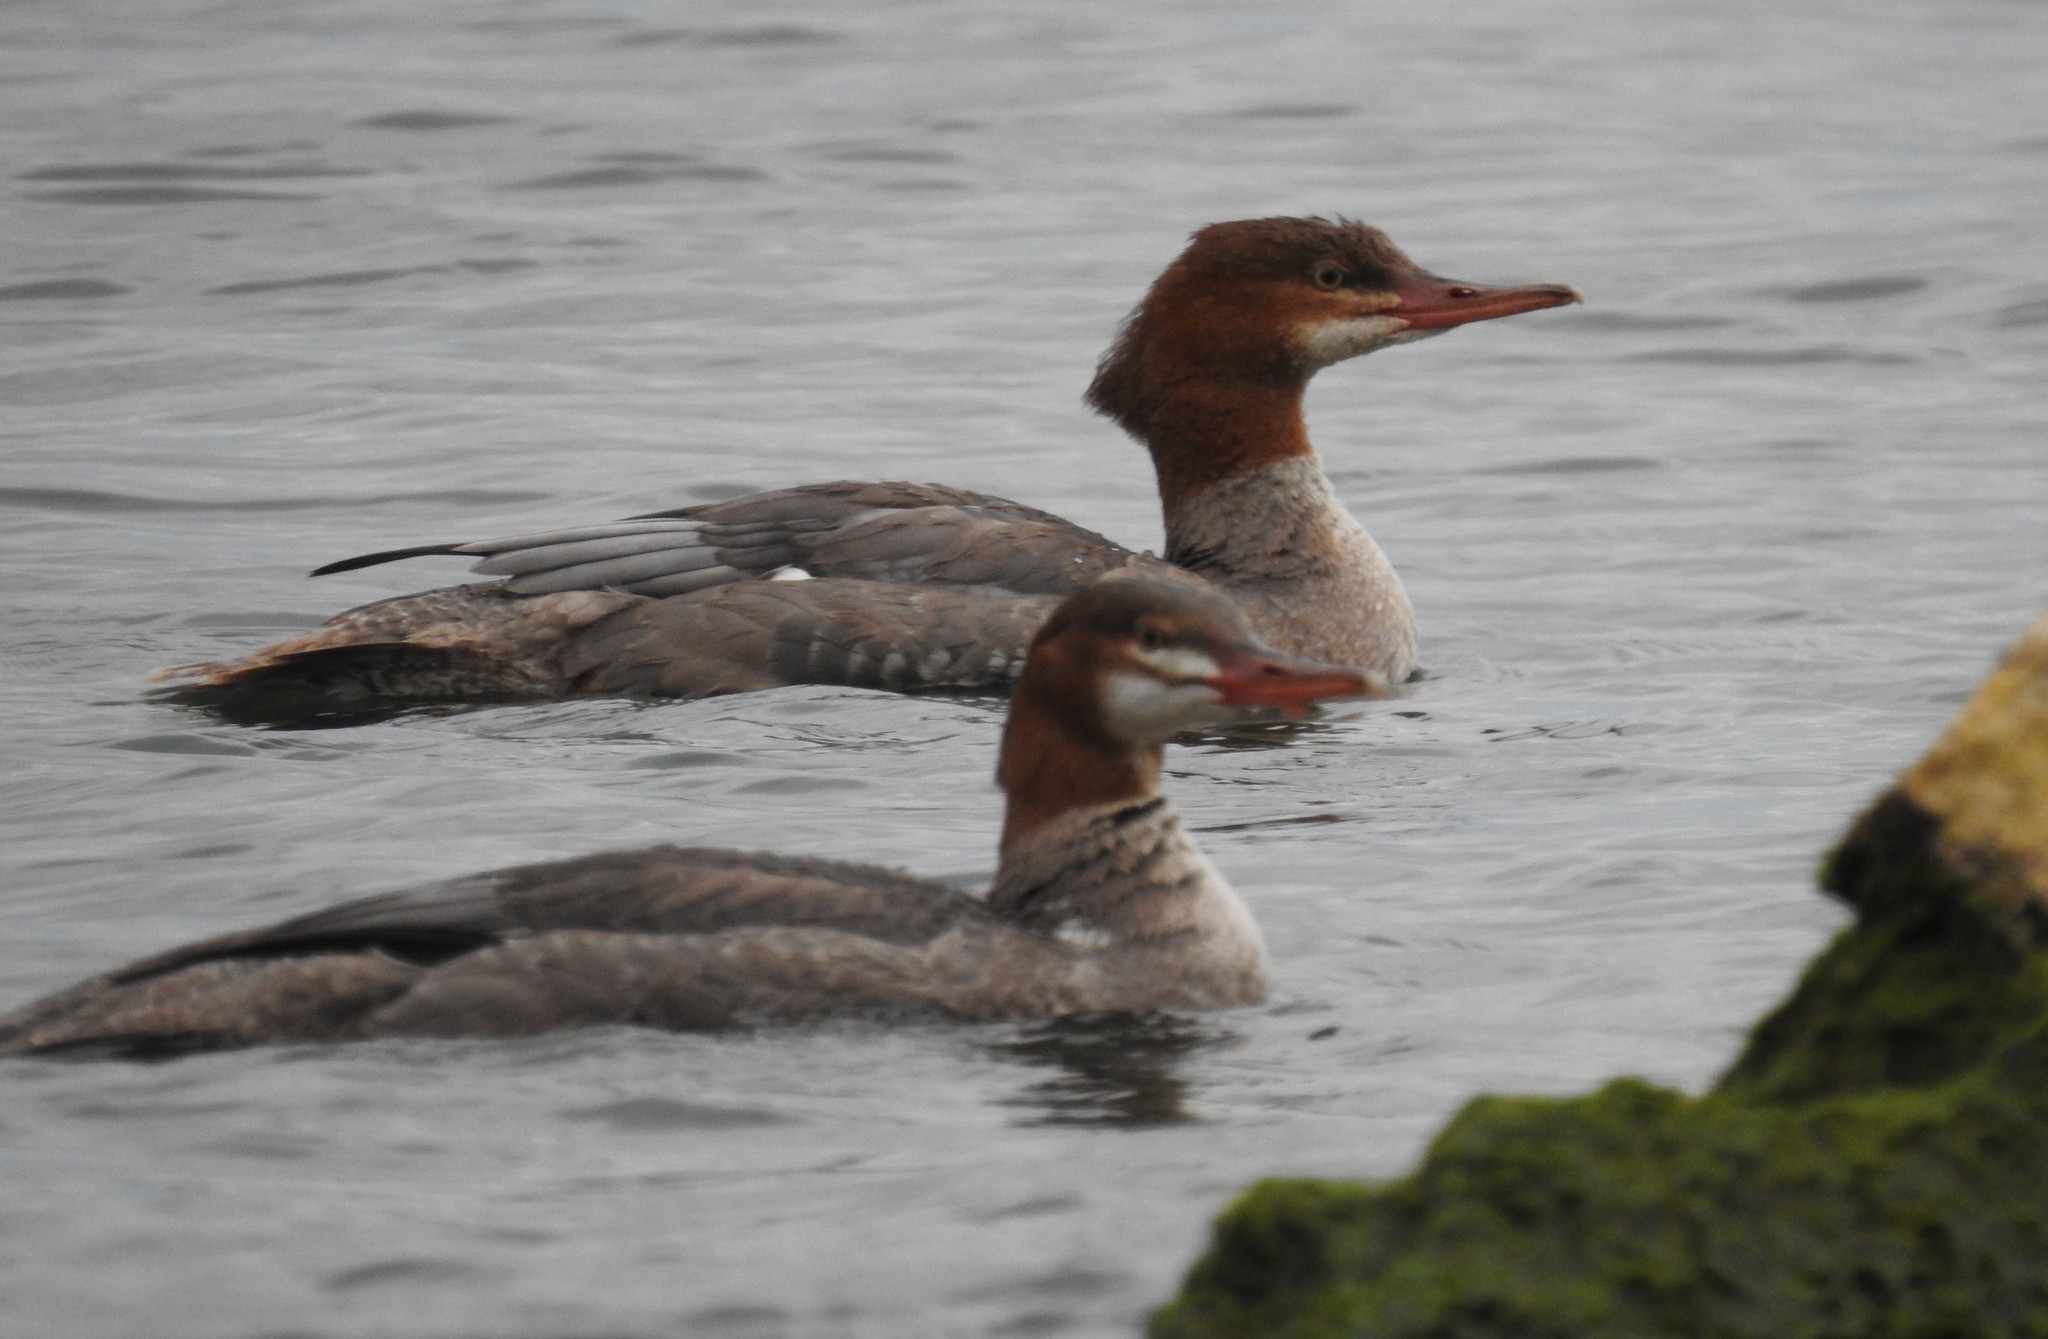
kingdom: Animalia
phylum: Chordata
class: Aves
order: Anseriformes
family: Anatidae
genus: Mergus
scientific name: Mergus merganser
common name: Common merganser
